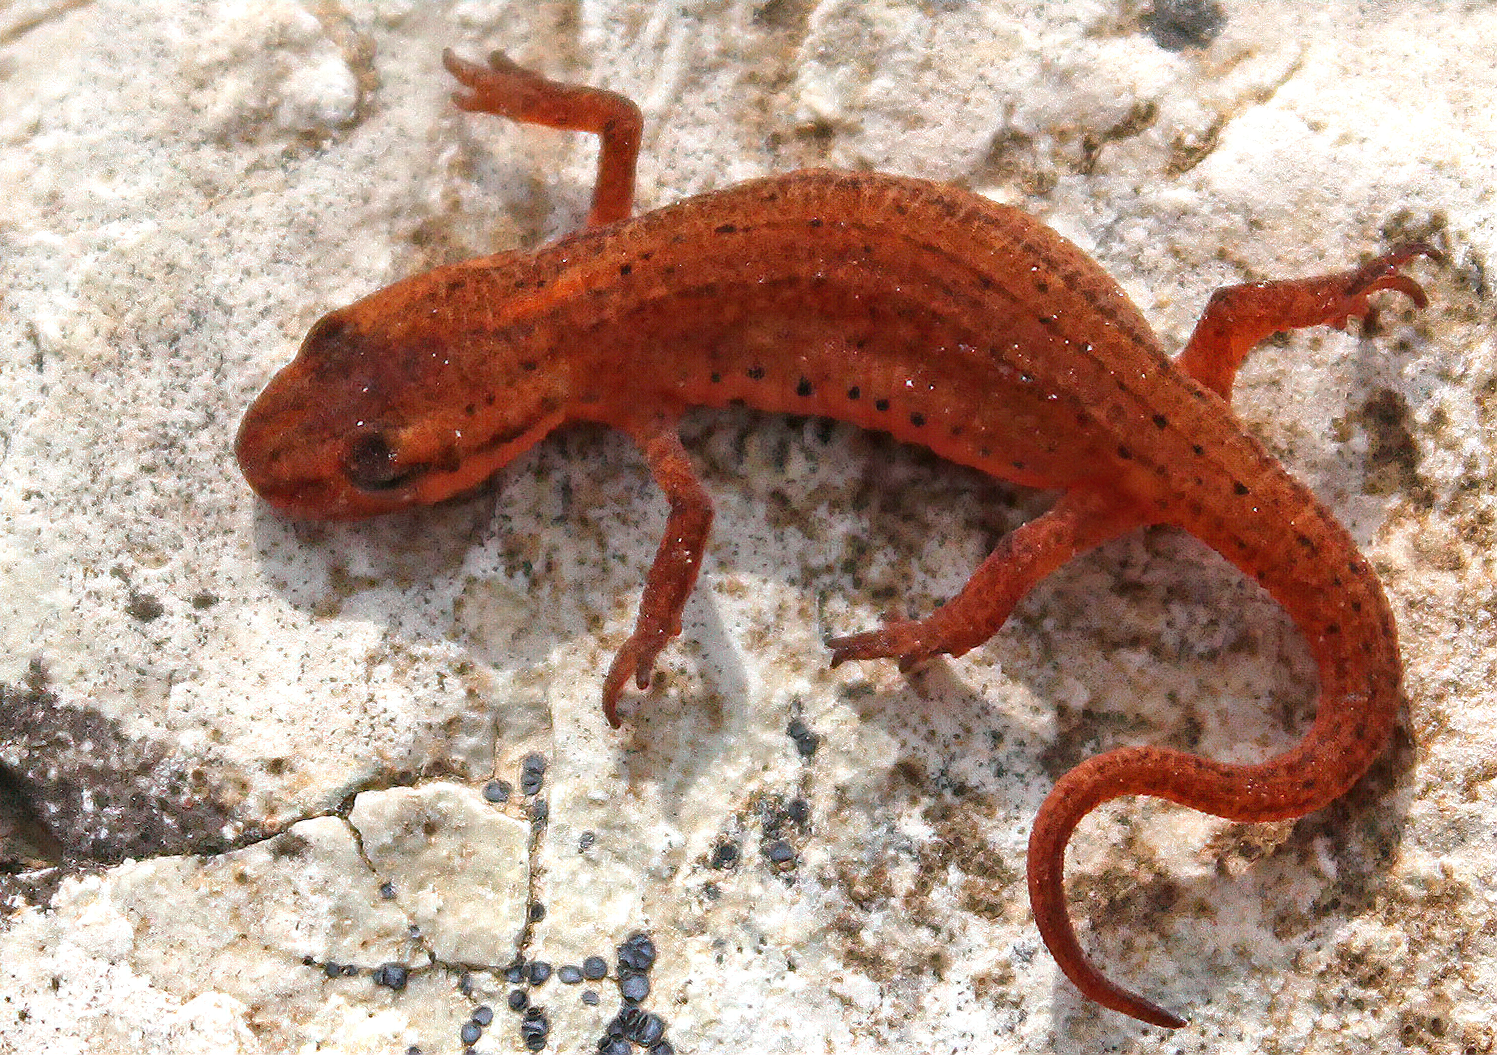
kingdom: Animalia
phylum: Chordata
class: Amphibia
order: Caudata
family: Salamandridae
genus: Lissotriton
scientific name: Lissotriton graecus
